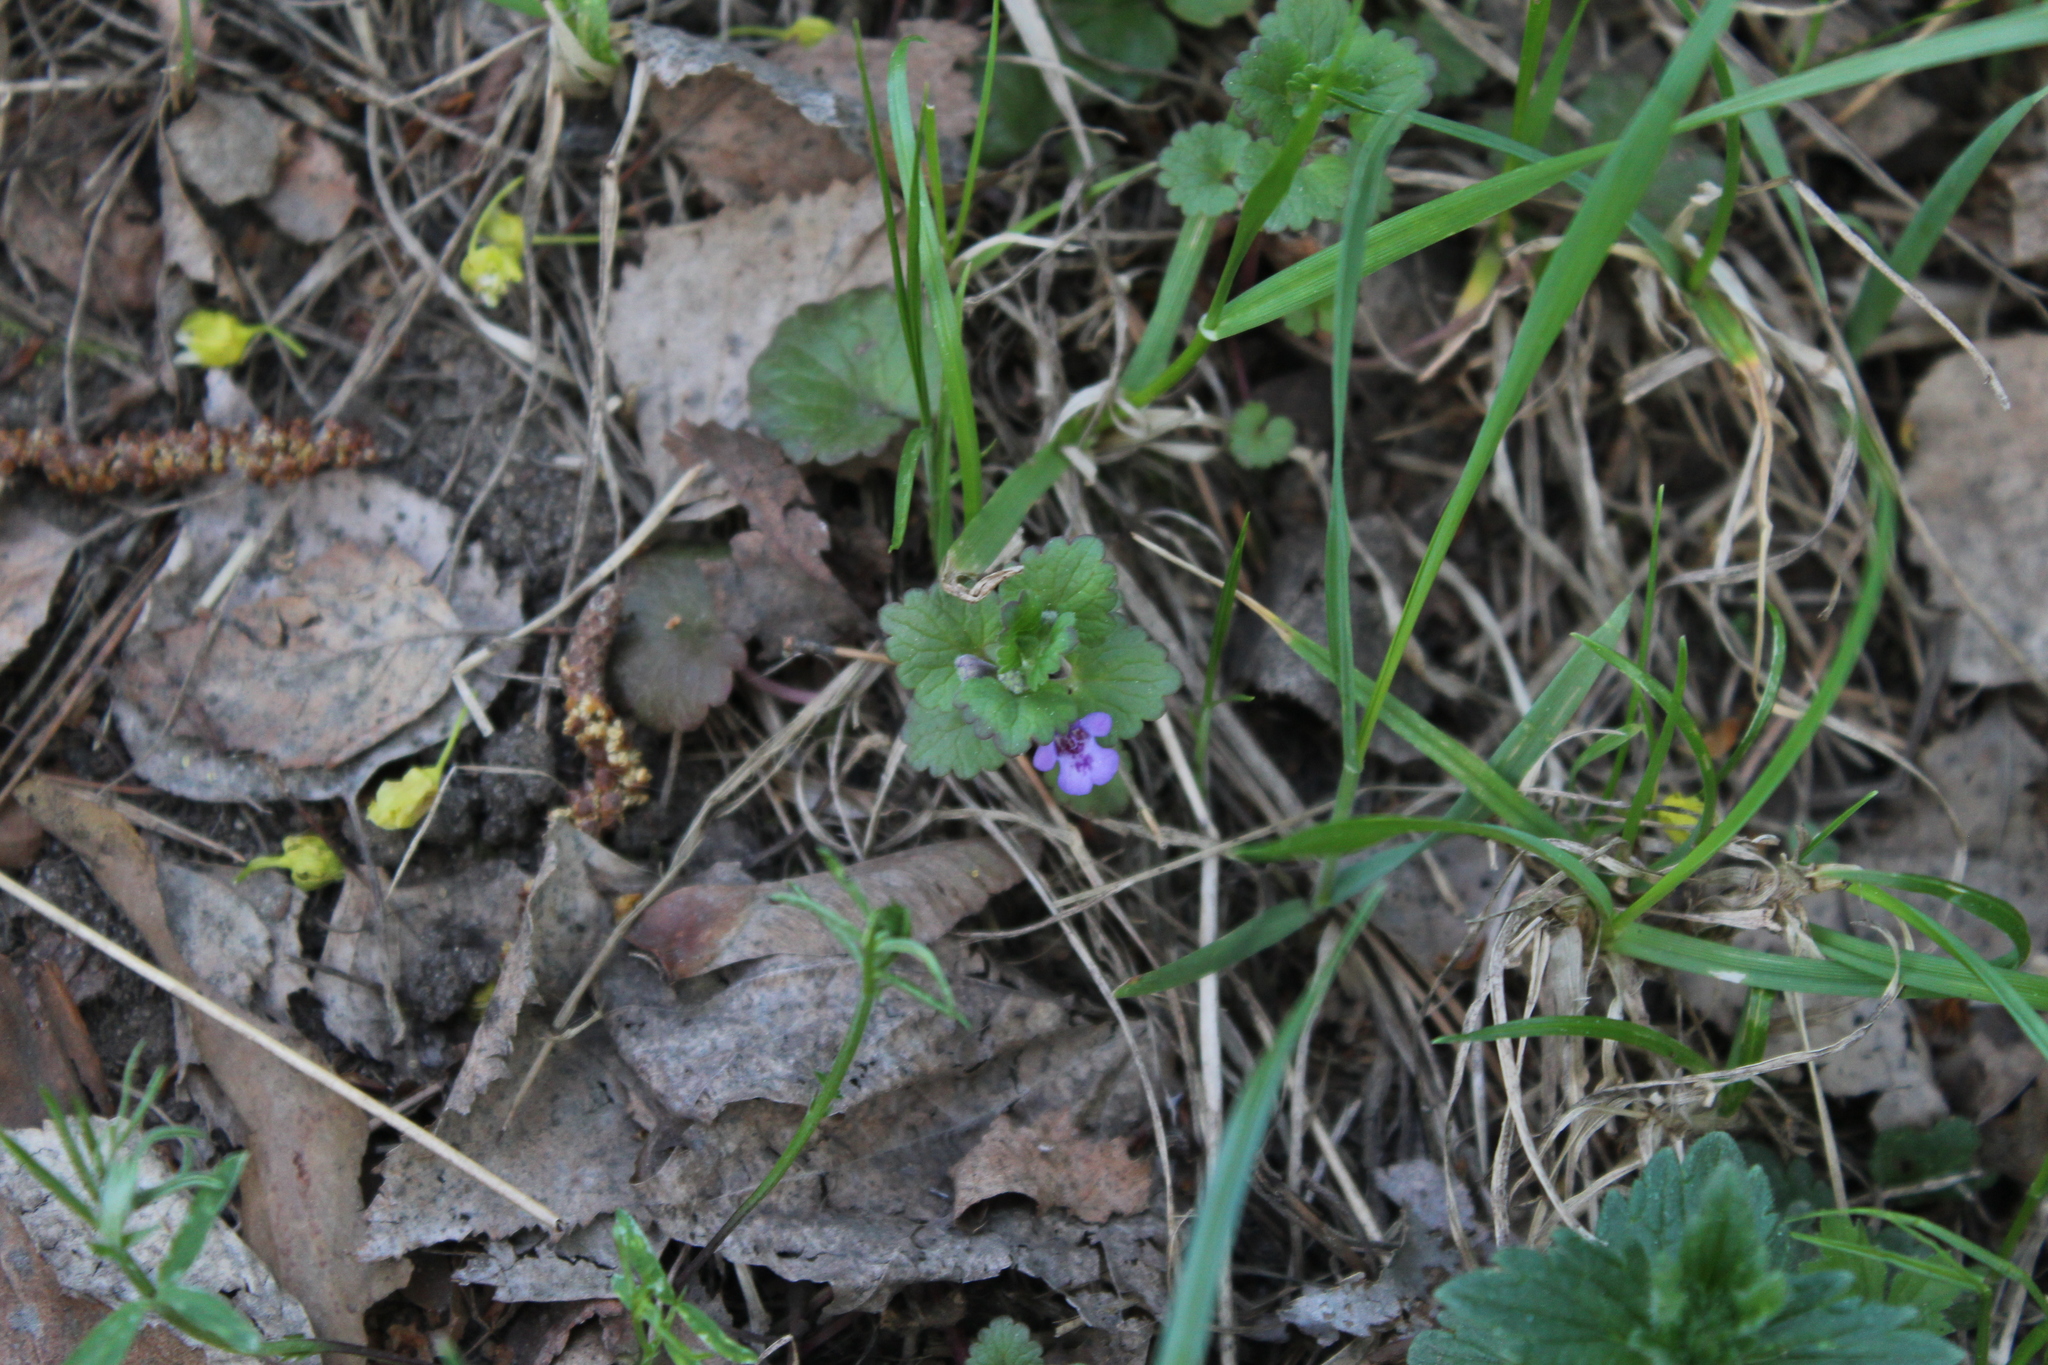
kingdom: Plantae
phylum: Tracheophyta
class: Magnoliopsida
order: Lamiales
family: Lamiaceae
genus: Glechoma
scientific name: Glechoma hederacea
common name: Ground ivy
